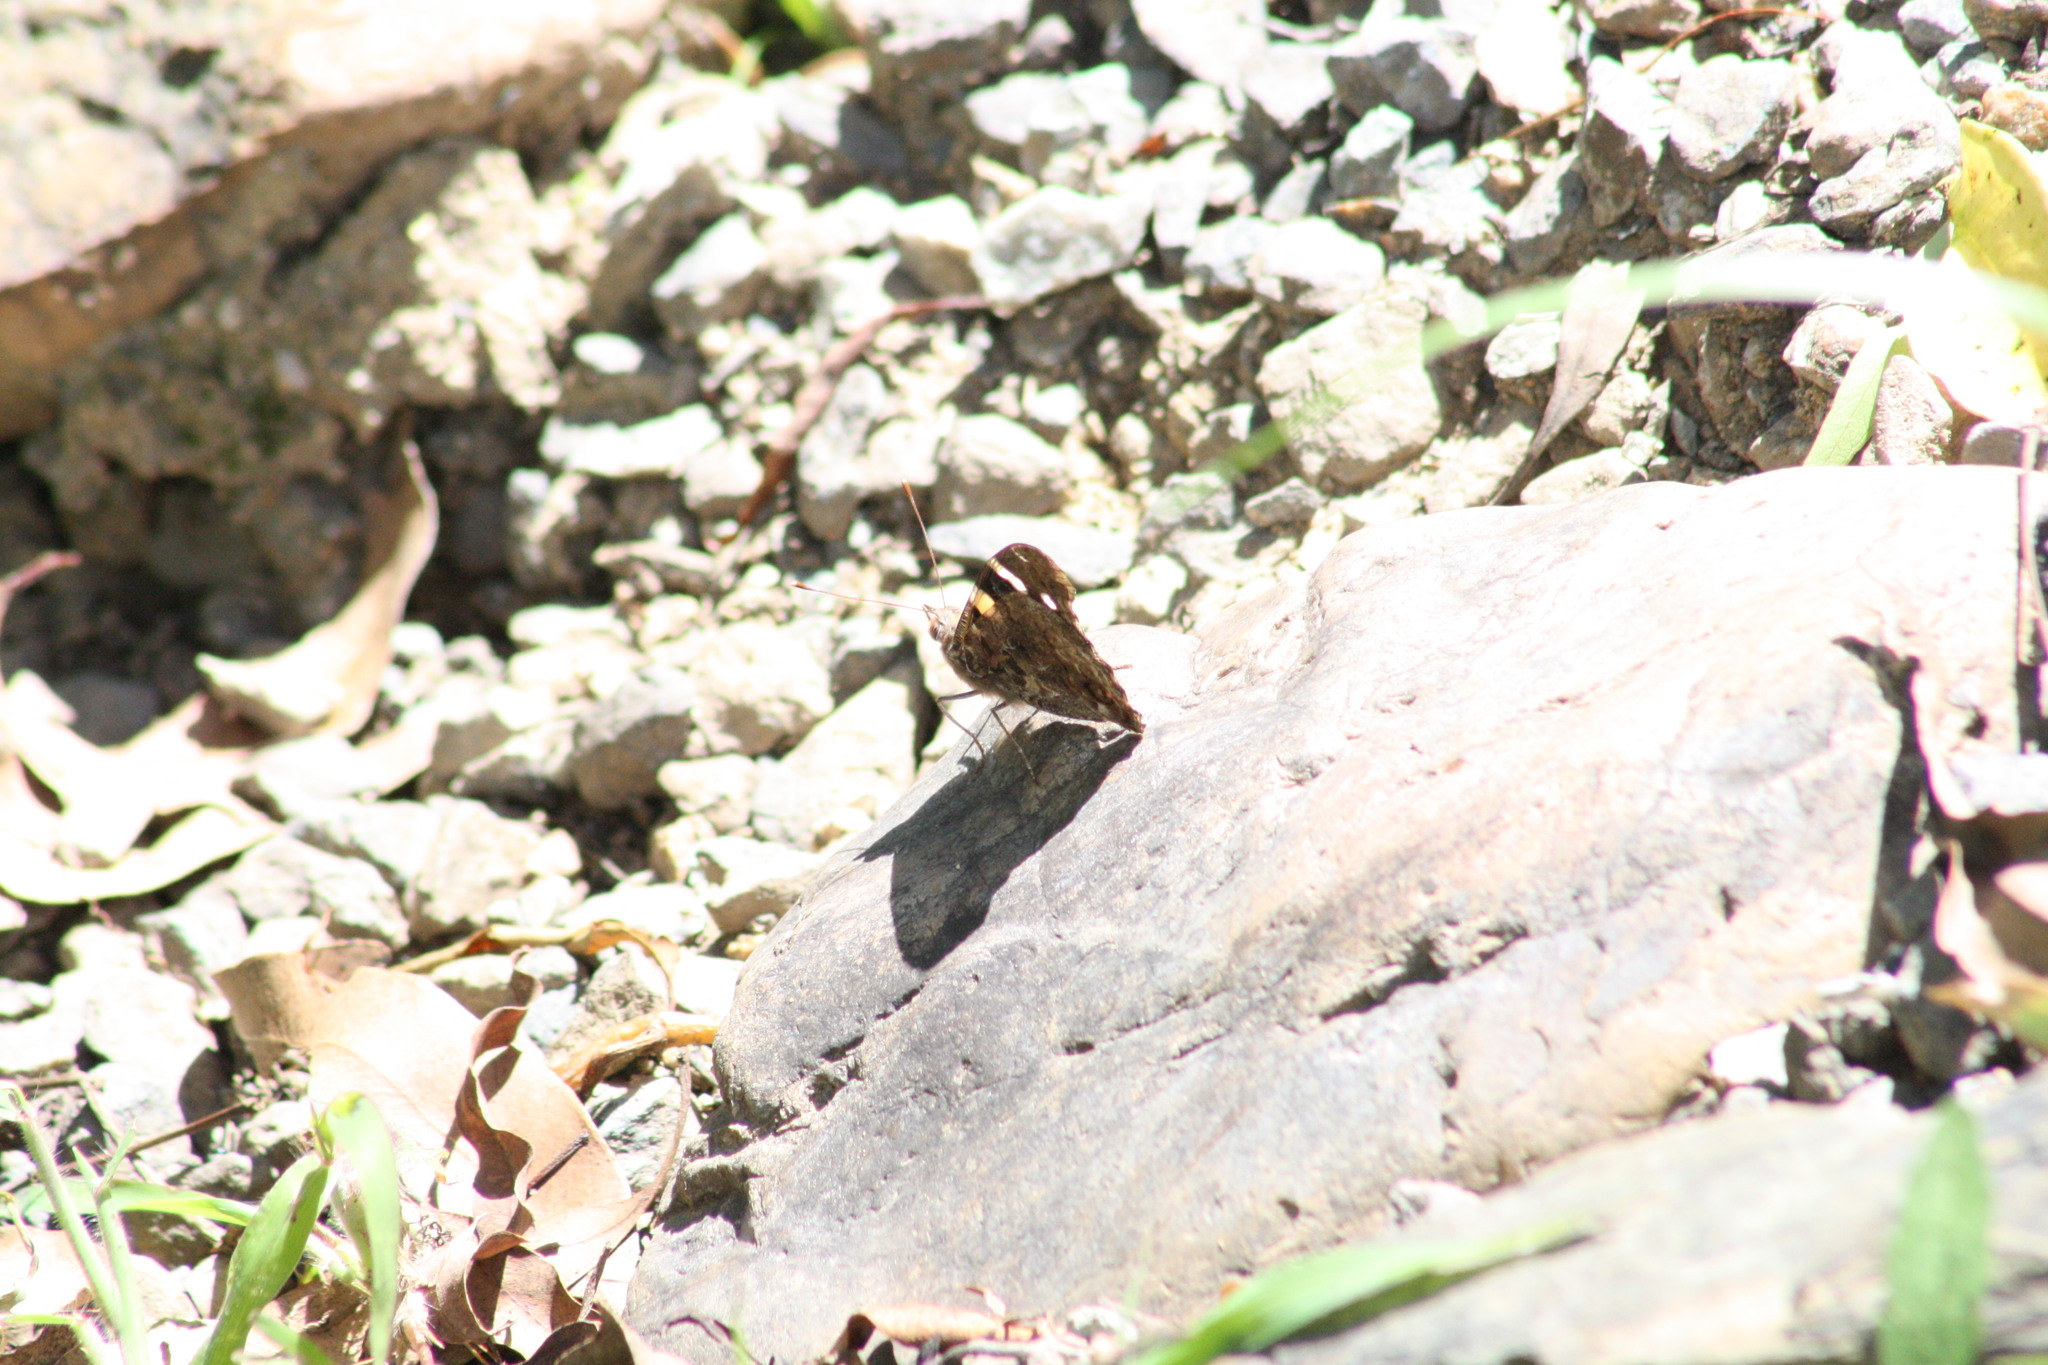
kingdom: Animalia
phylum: Arthropoda
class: Insecta
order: Lepidoptera
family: Nymphalidae
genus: Vanessa
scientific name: Vanessa itea
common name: Yellow admiral
